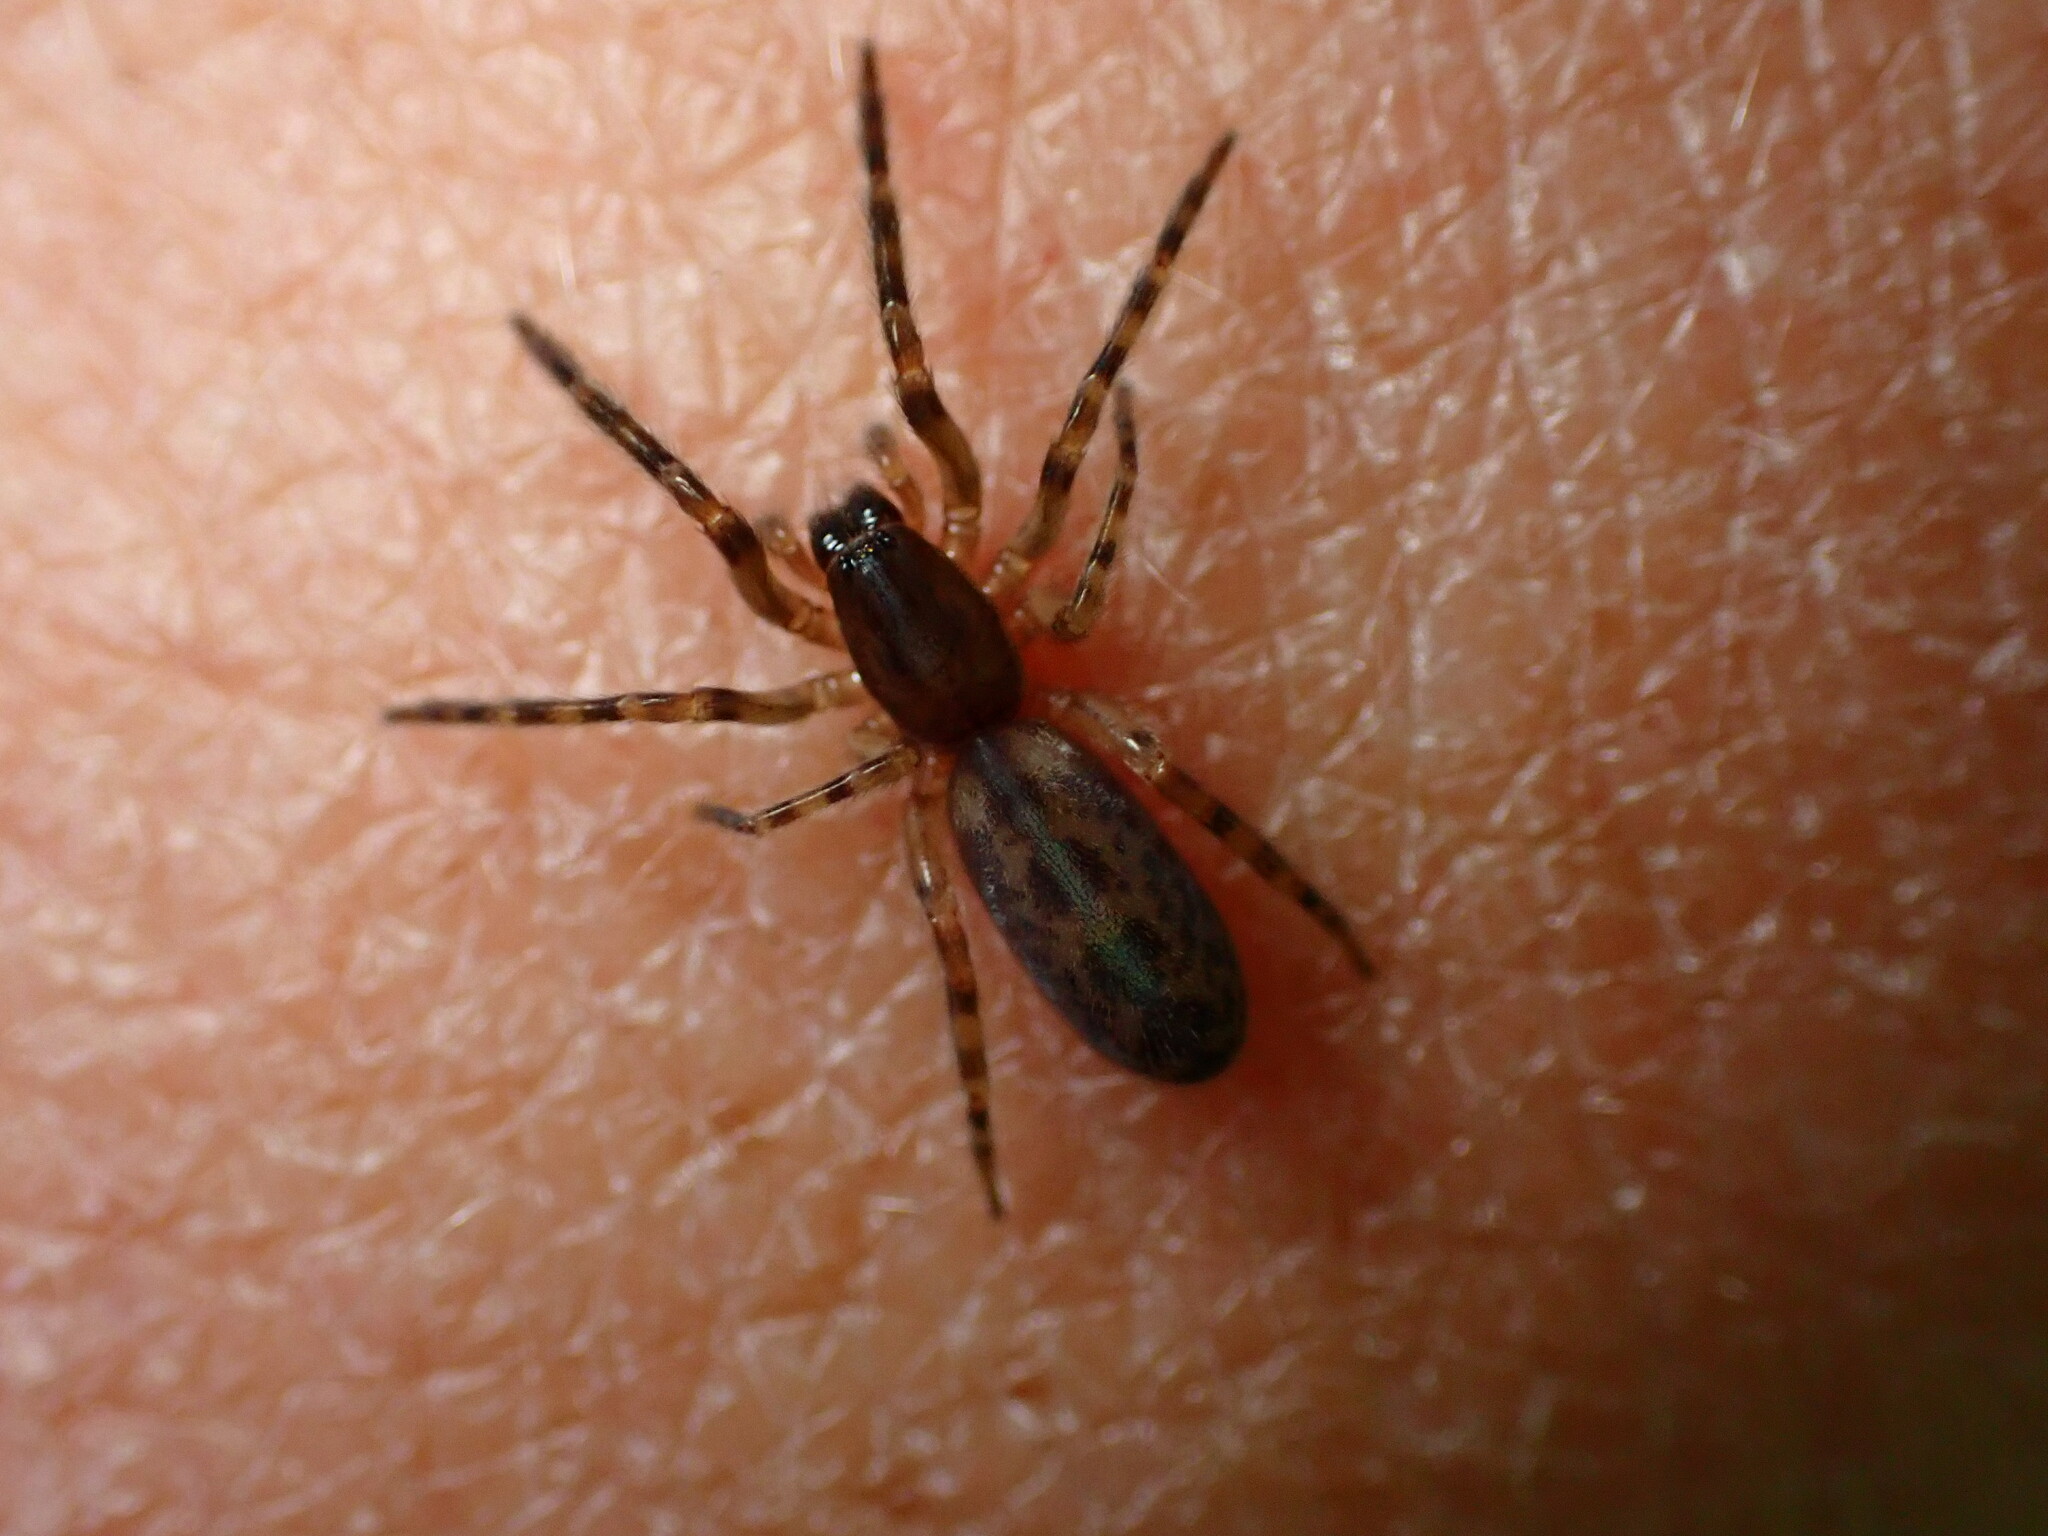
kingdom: Animalia
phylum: Arthropoda
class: Arachnida
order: Araneae
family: Segestriidae
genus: Segestria
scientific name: Segestria pacifica
